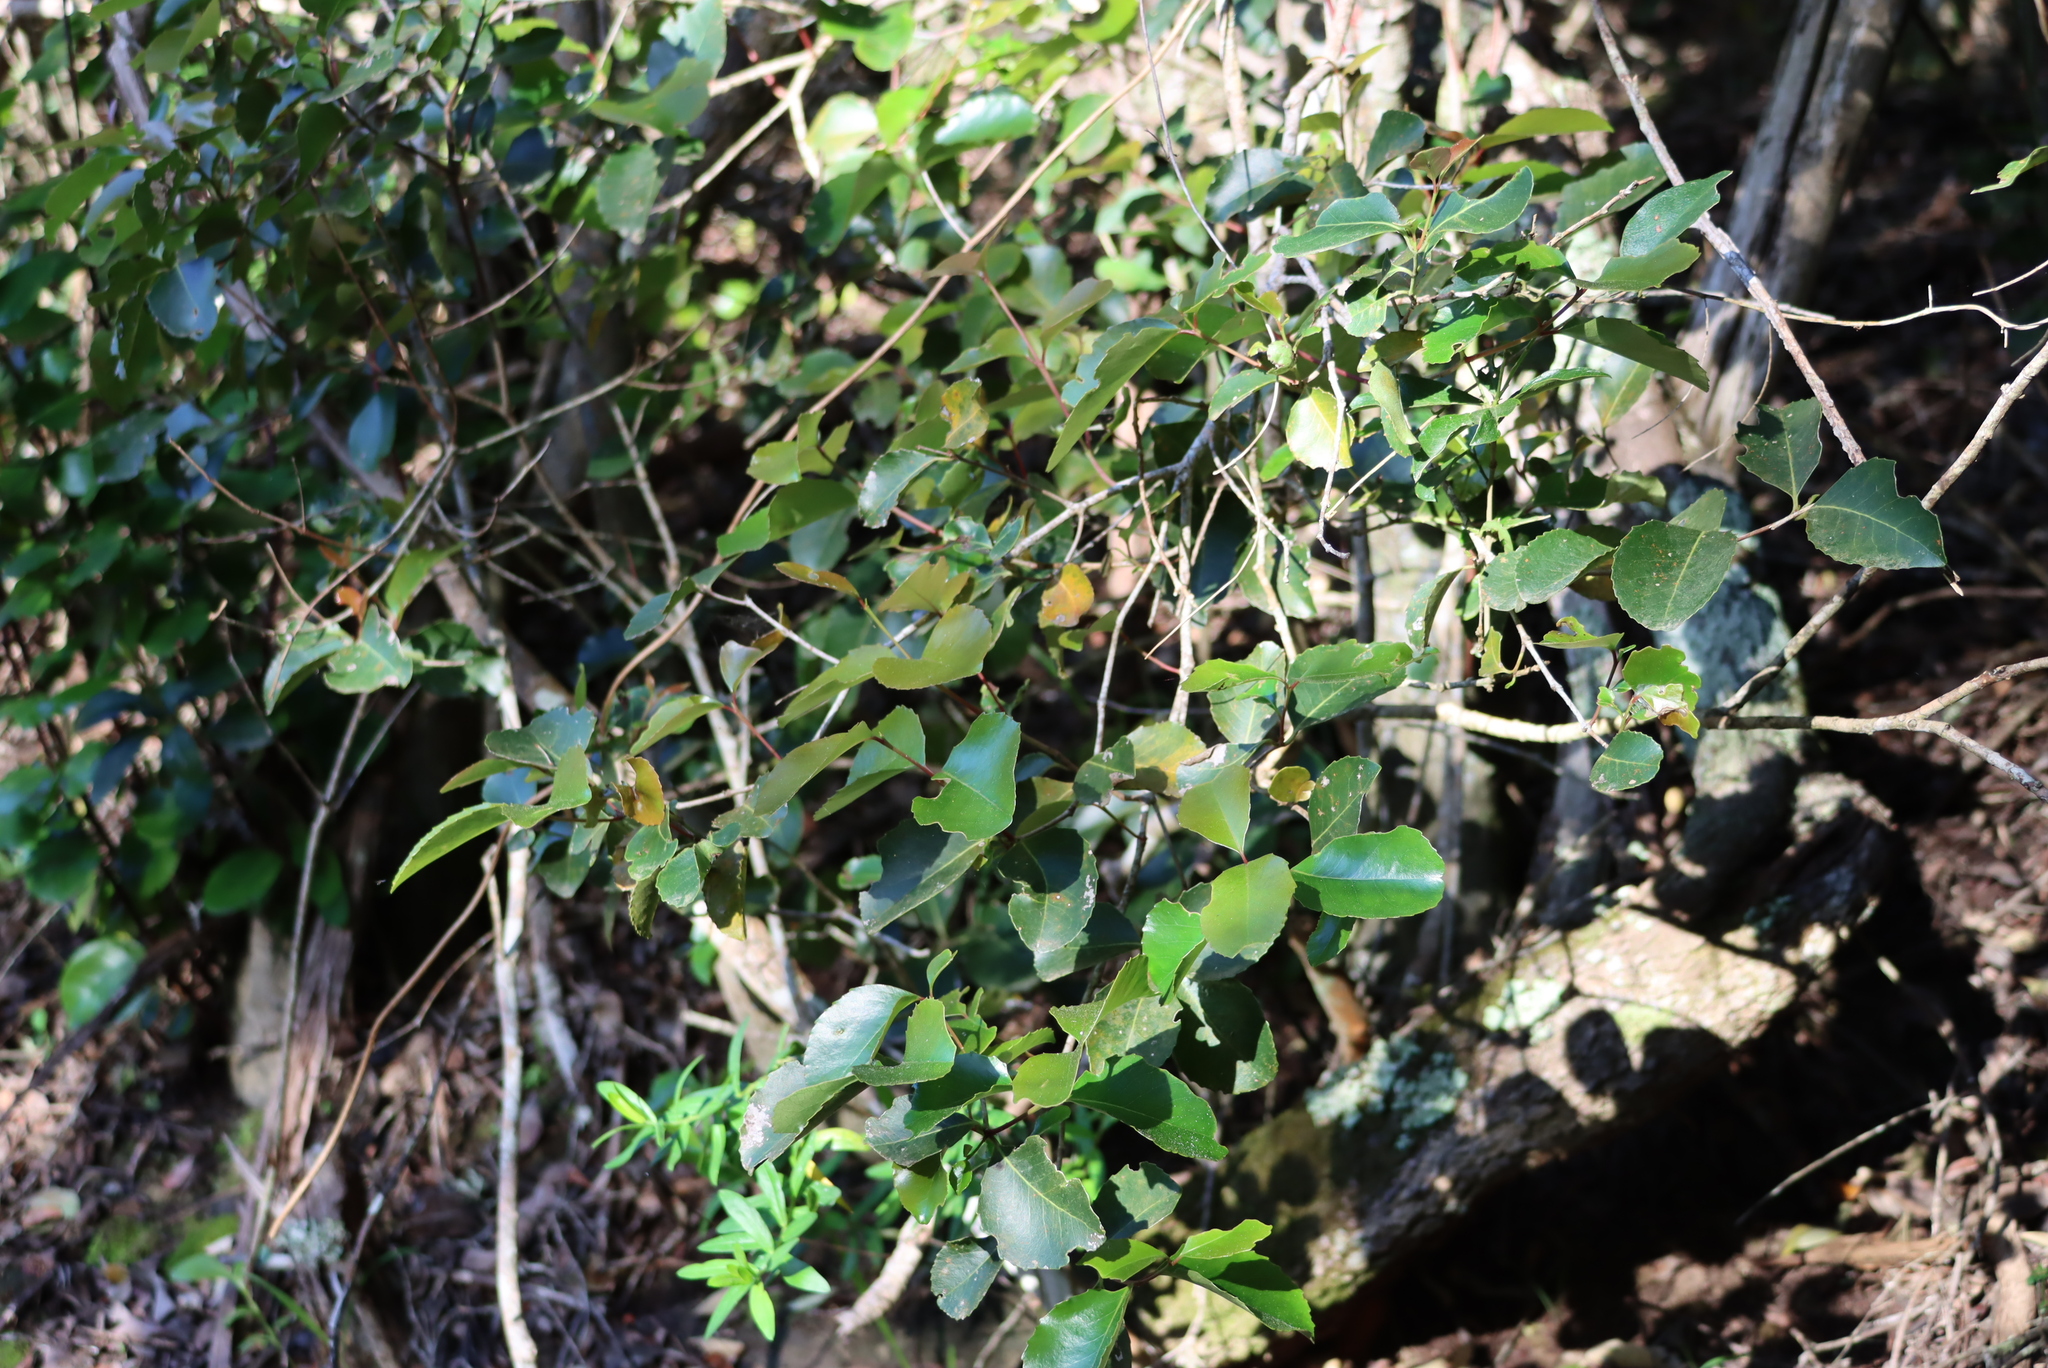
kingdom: Plantae
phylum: Tracheophyta
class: Magnoliopsida
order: Celastrales
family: Celastraceae
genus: Cassine
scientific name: Cassine peragua
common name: Cape saffron
